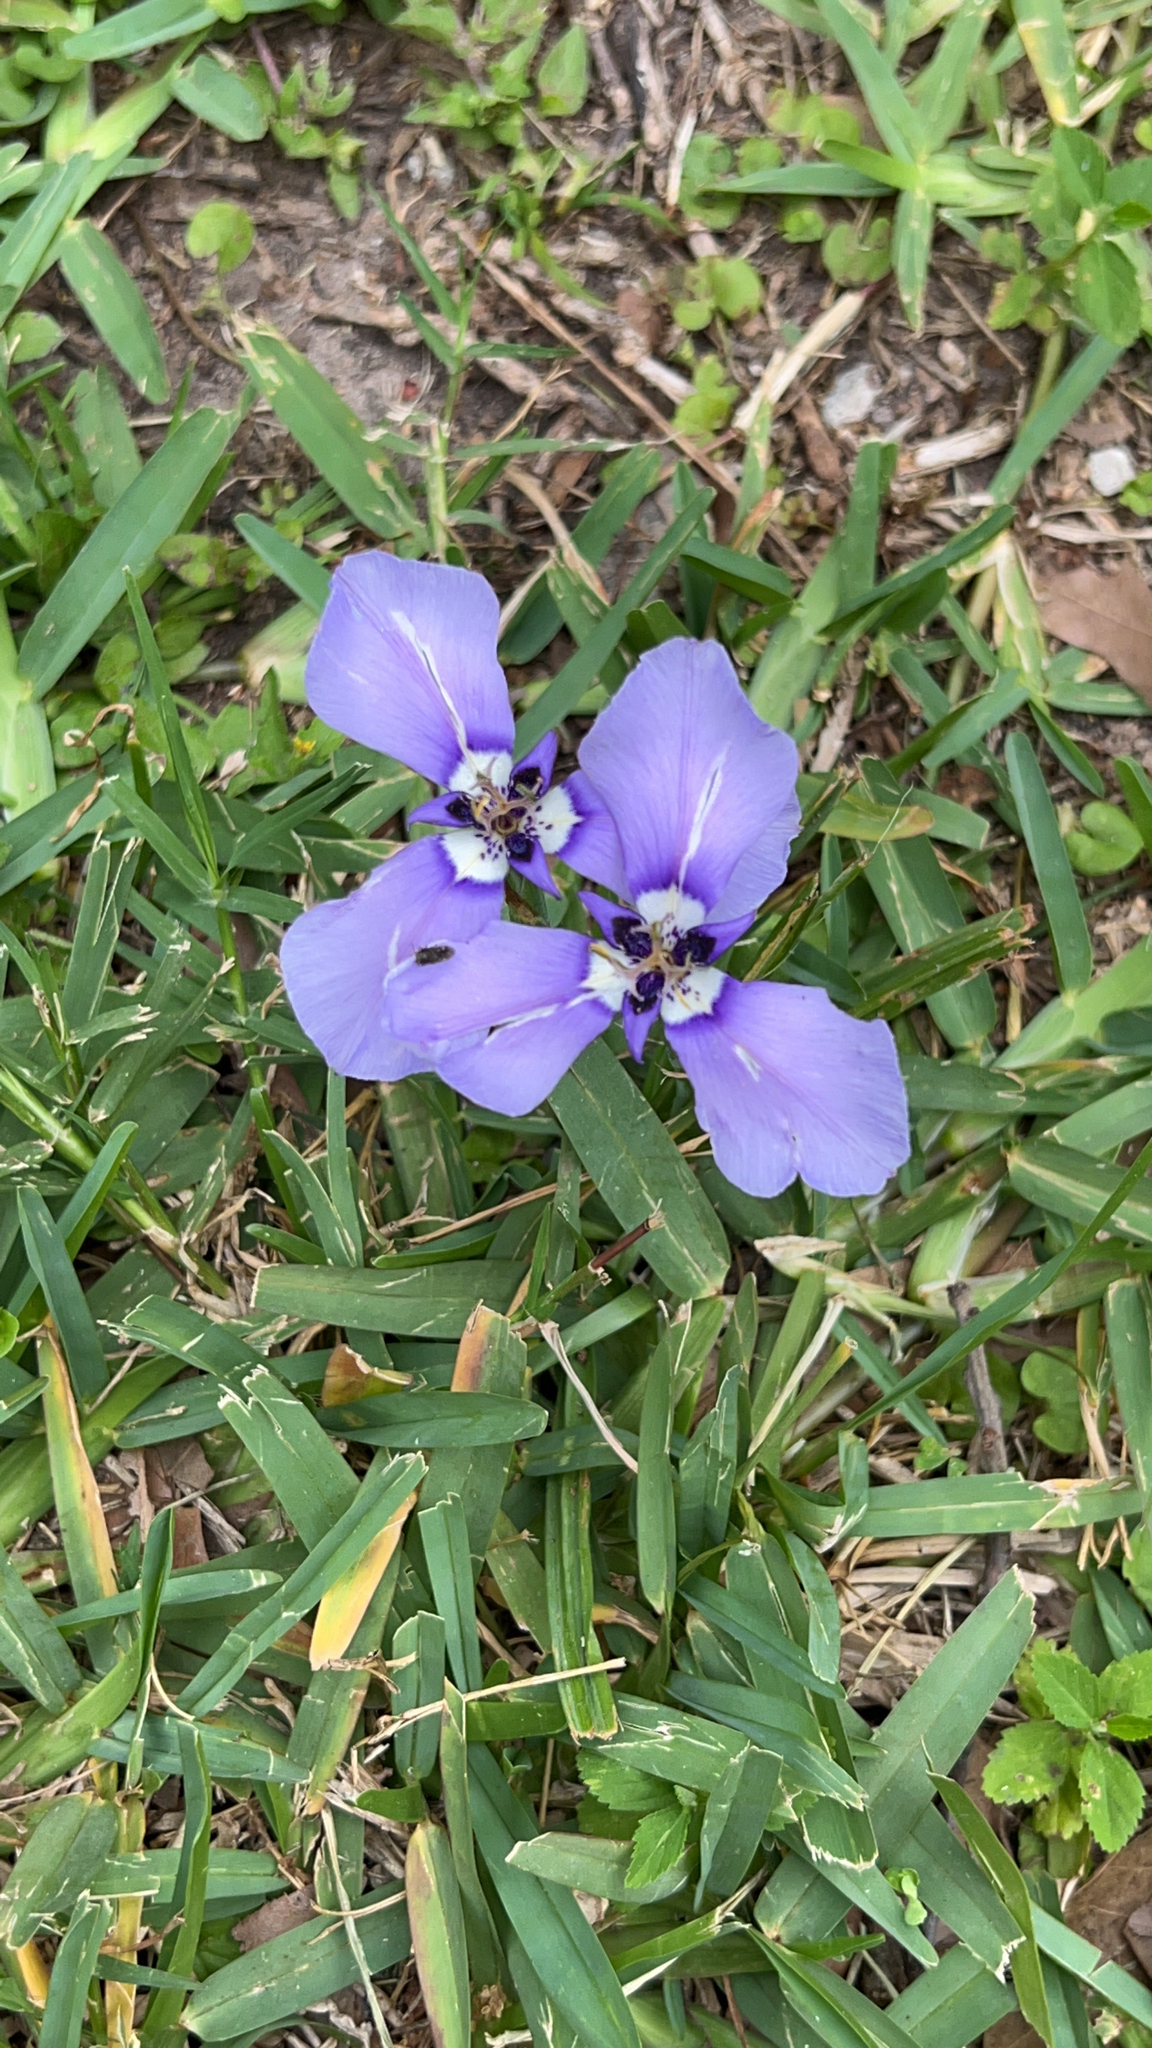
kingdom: Plantae
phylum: Tracheophyta
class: Liliopsida
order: Asparagales
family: Iridaceae
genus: Herbertia
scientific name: Herbertia lahue
